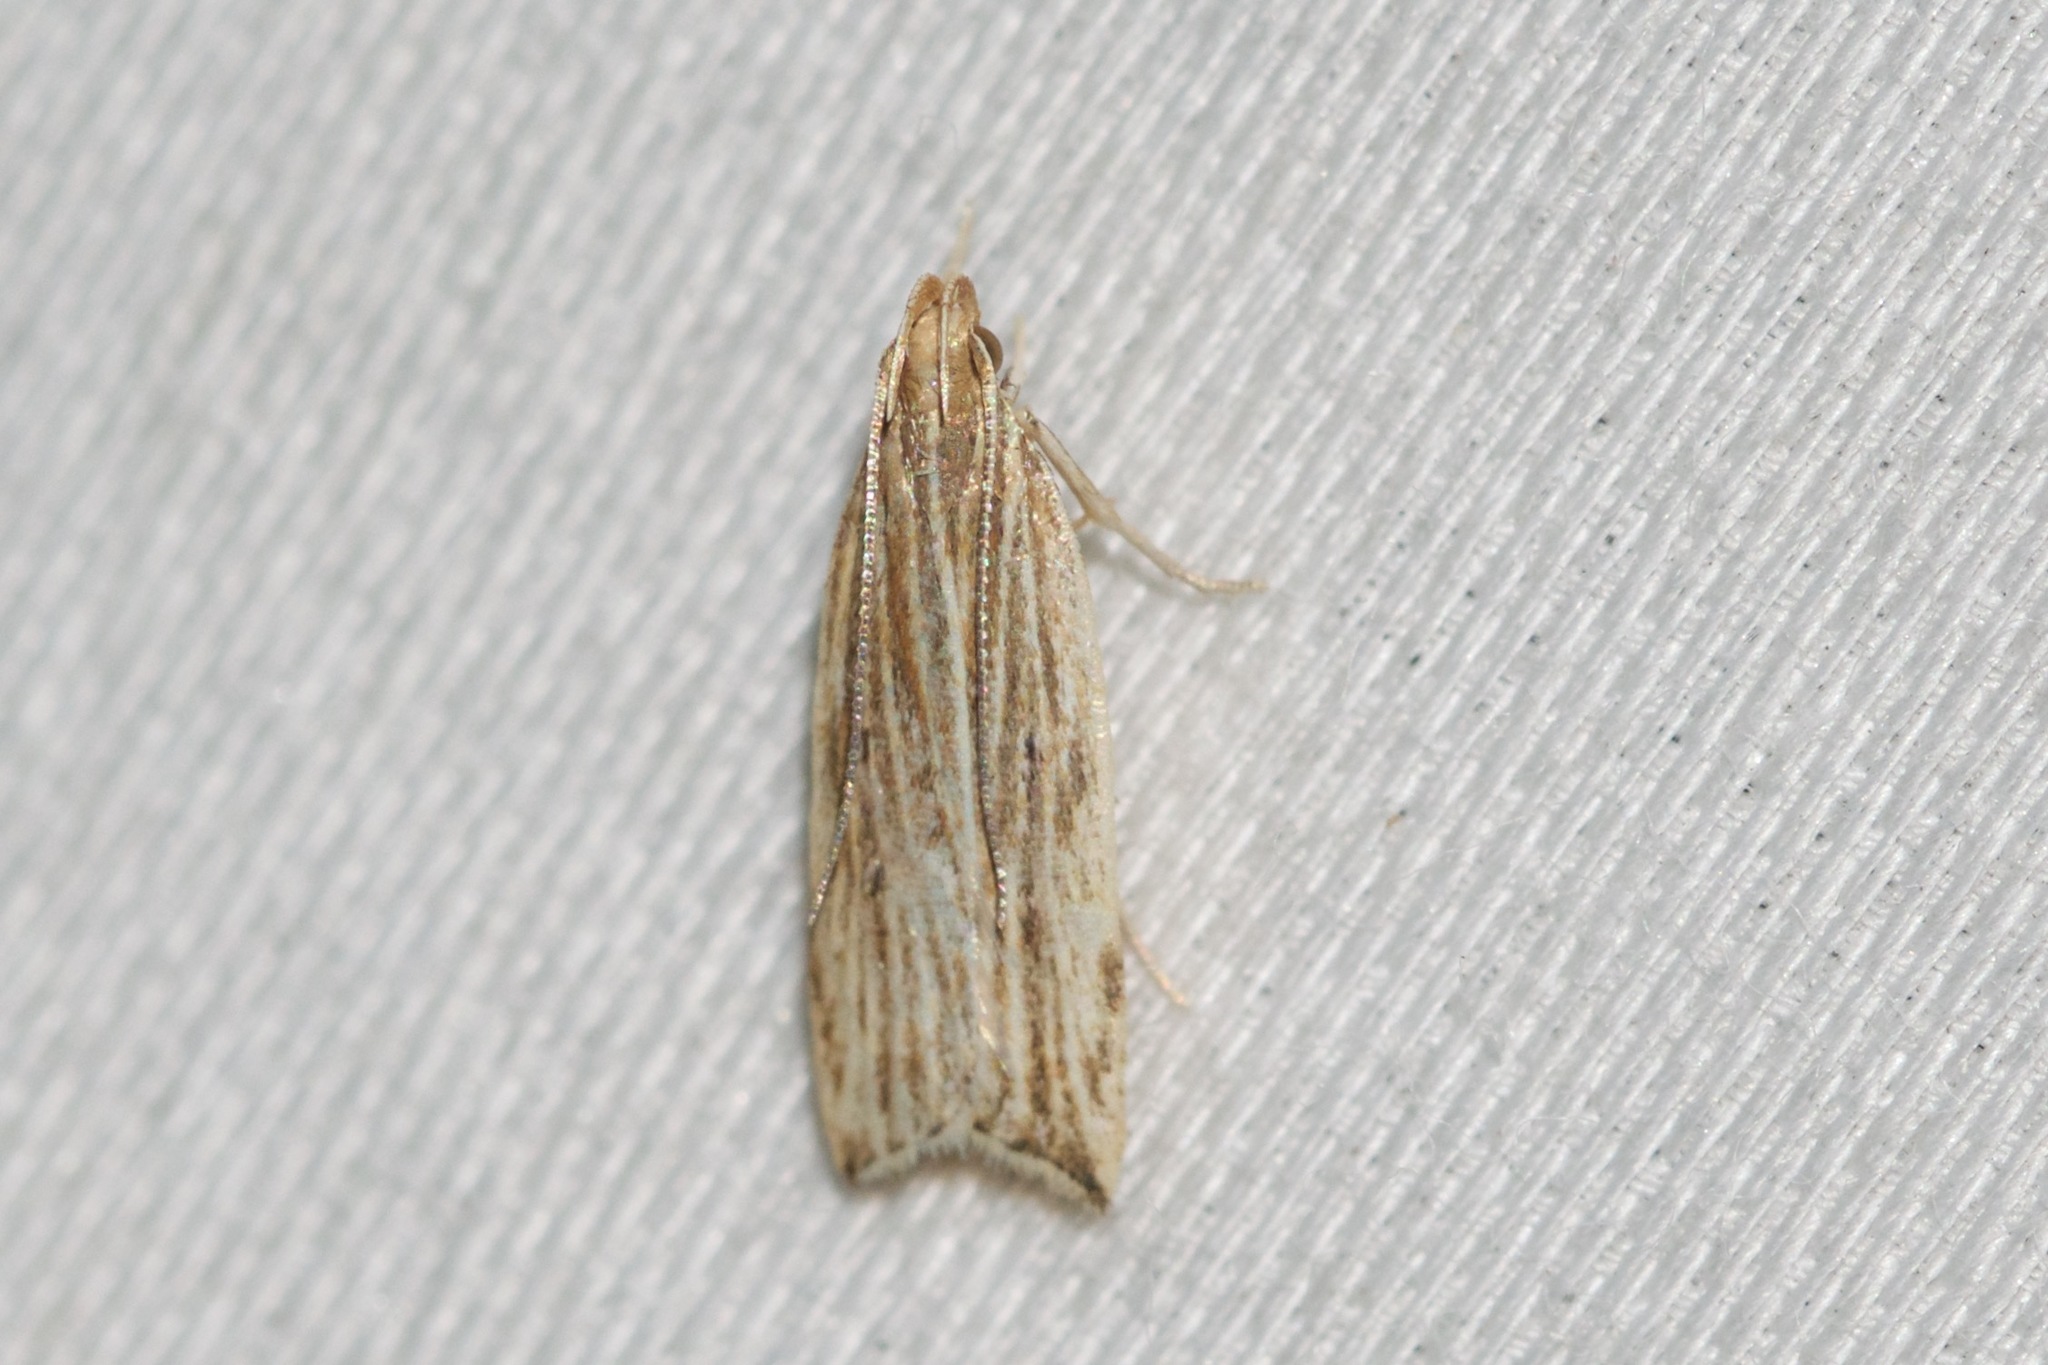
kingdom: Animalia
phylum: Arthropoda
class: Insecta
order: Lepidoptera
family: Gelechiidae
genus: Helcystogramma
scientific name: Helcystogramma hystricella
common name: Lanceolate moth
